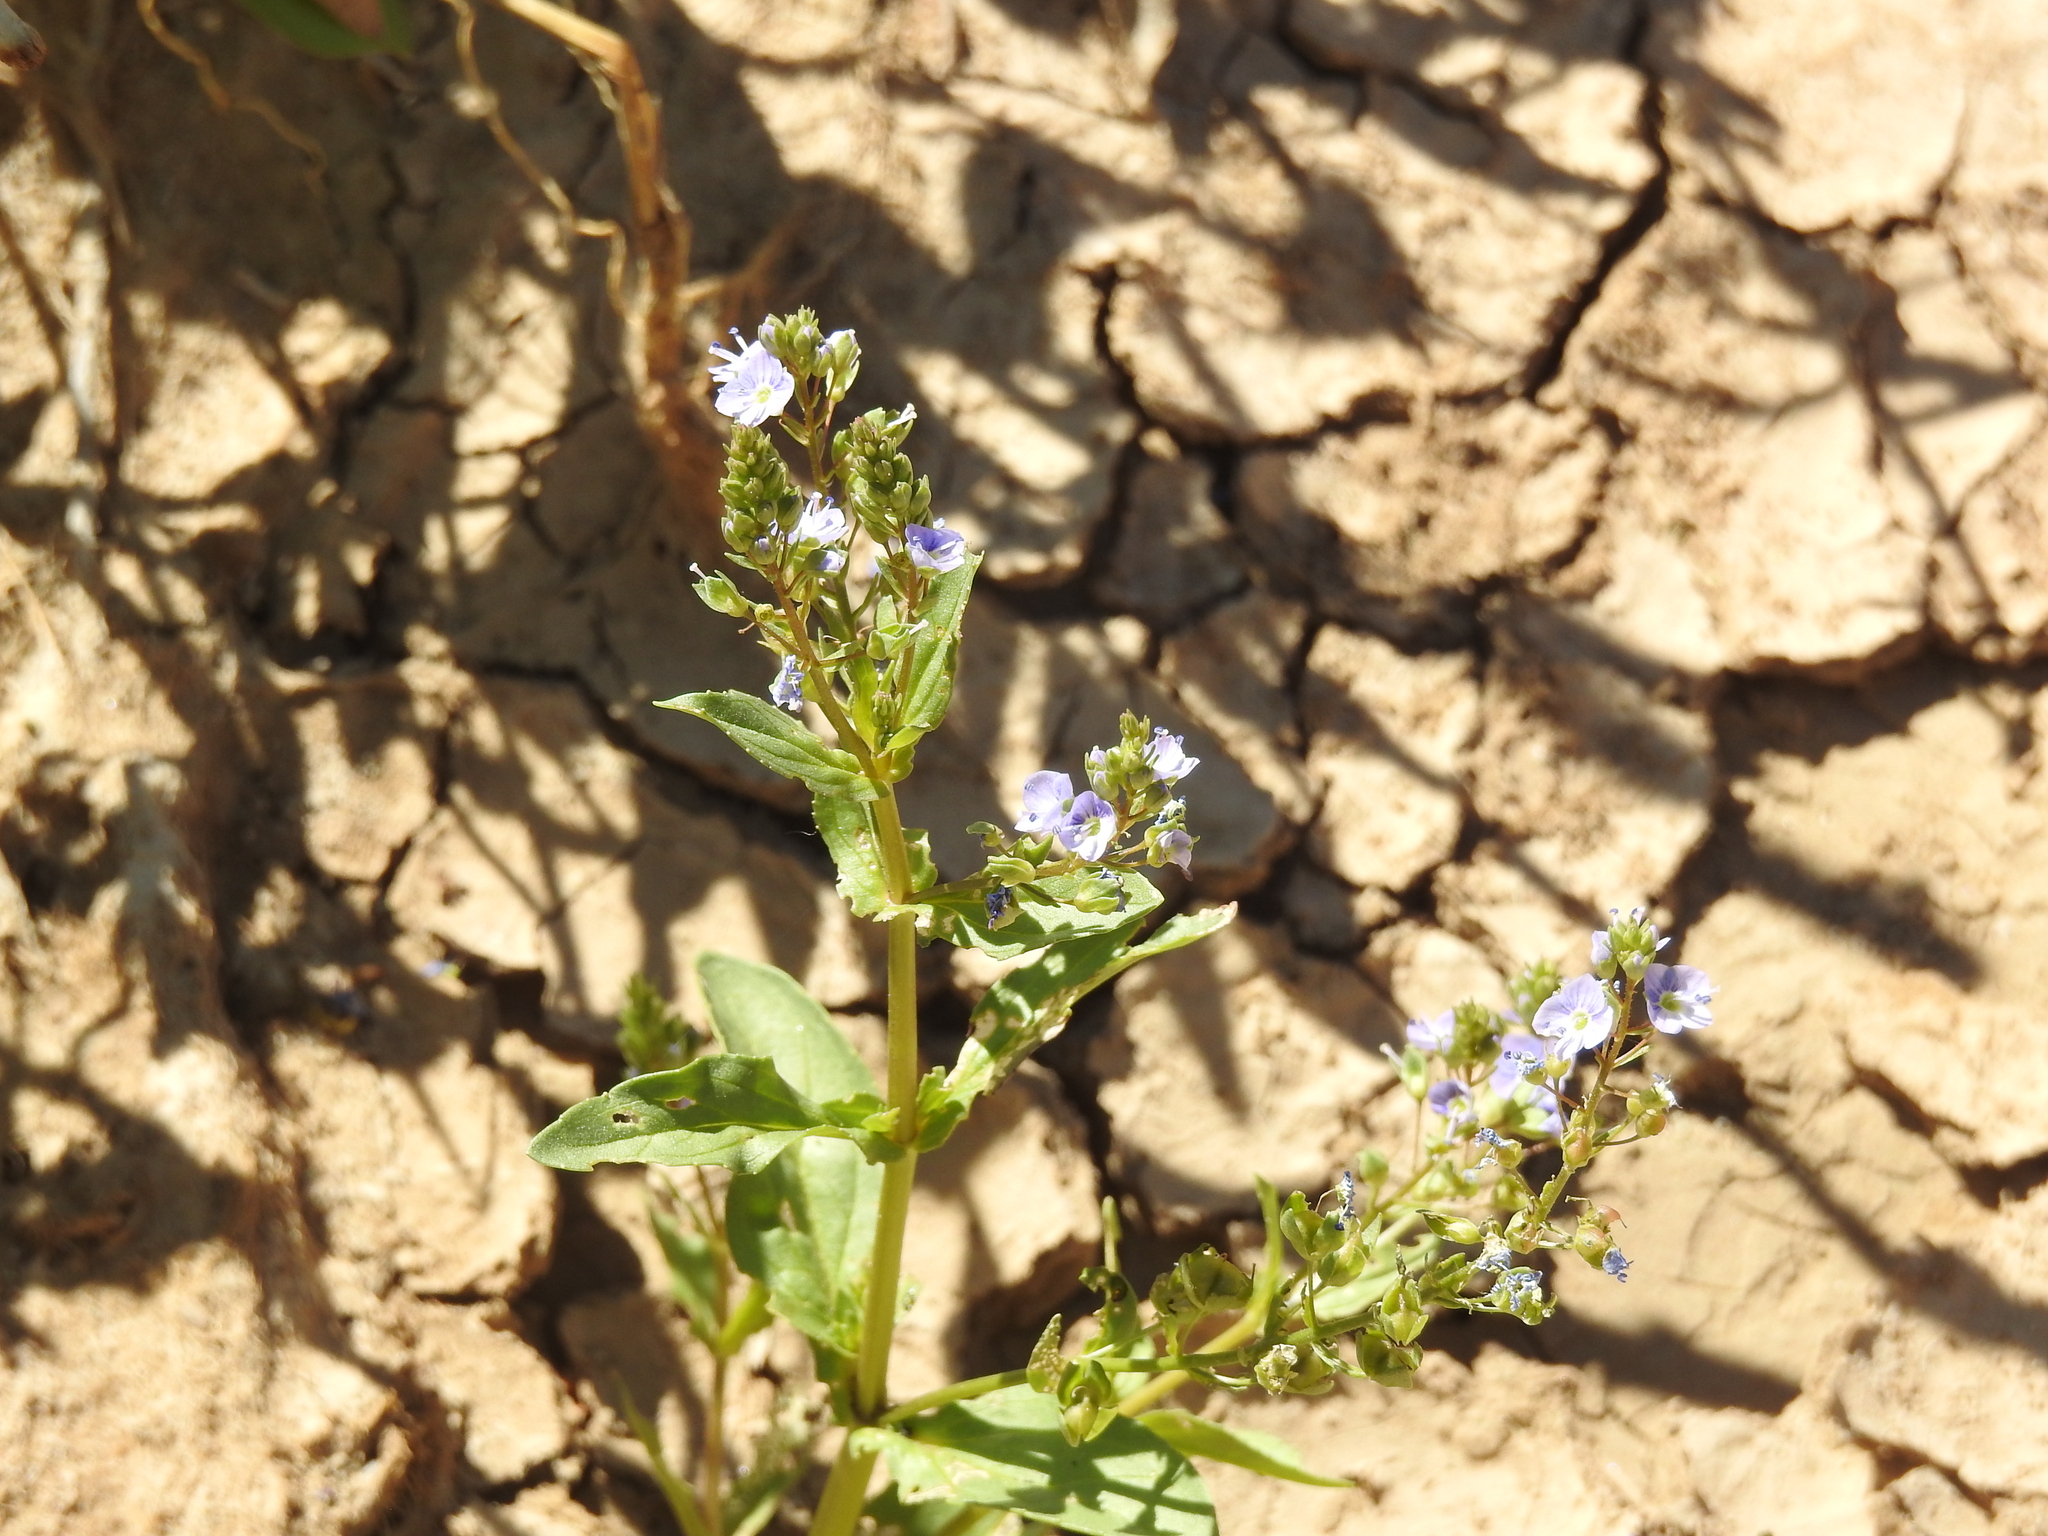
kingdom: Plantae
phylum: Tracheophyta
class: Magnoliopsida
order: Lamiales
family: Plantaginaceae
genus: Veronica
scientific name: Veronica anagallis-aquatica
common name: Water speedwell
